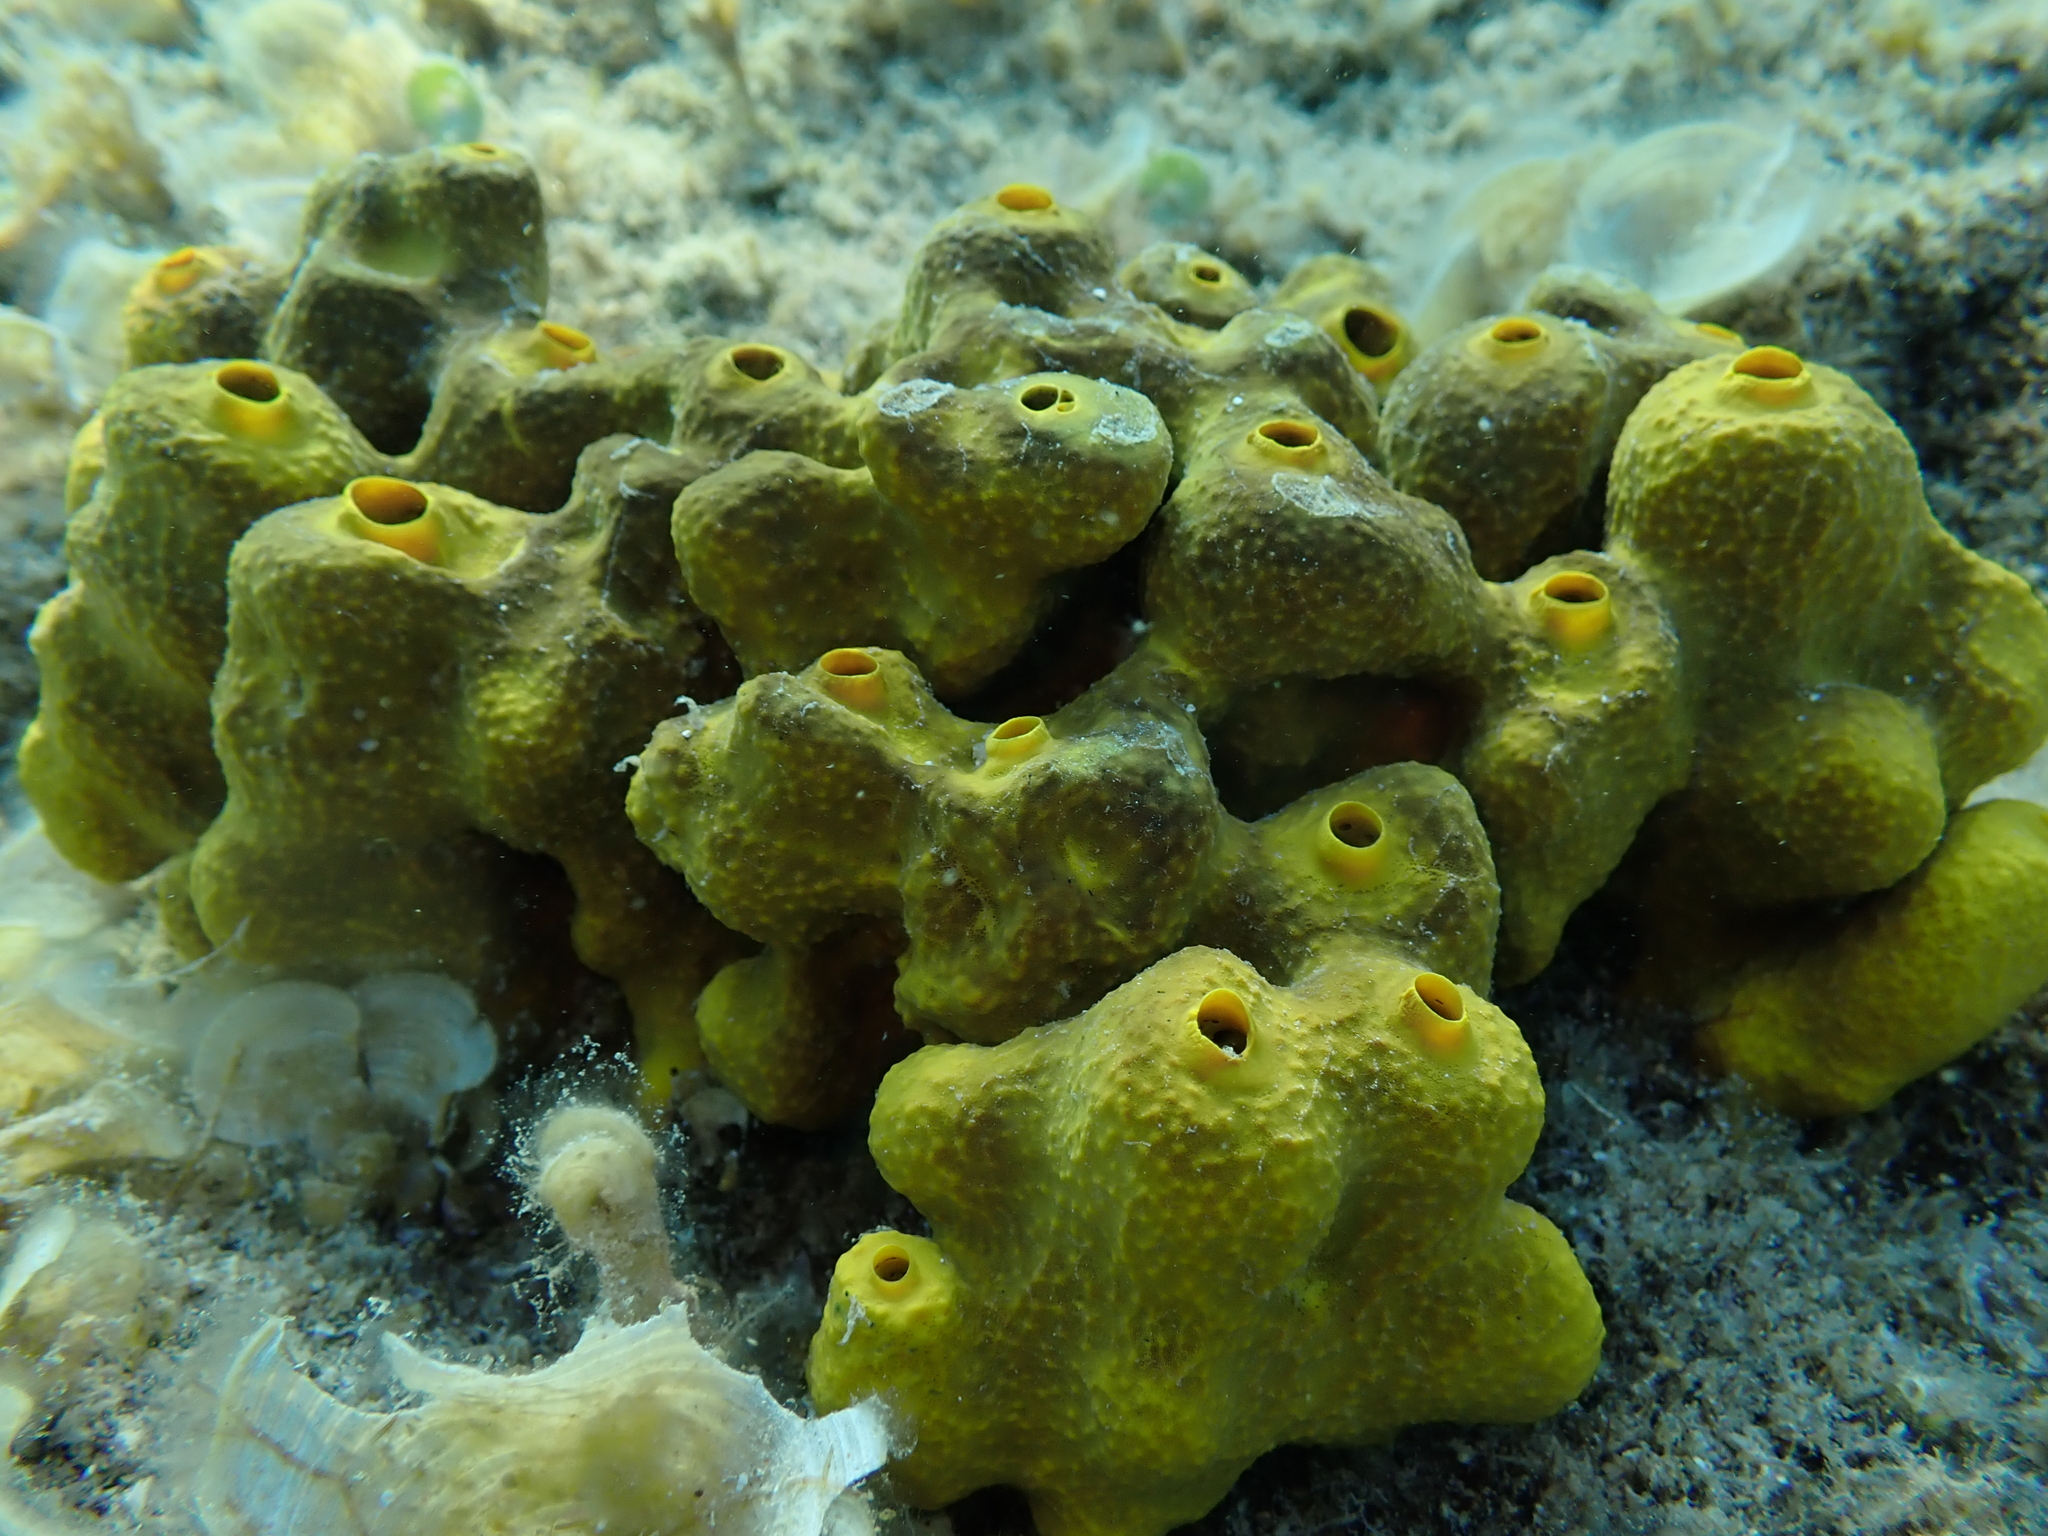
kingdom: Animalia
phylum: Porifera
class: Demospongiae
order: Verongiida
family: Aplysinidae
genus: Aplysina
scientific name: Aplysina aerophoba
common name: Aureate sponge
